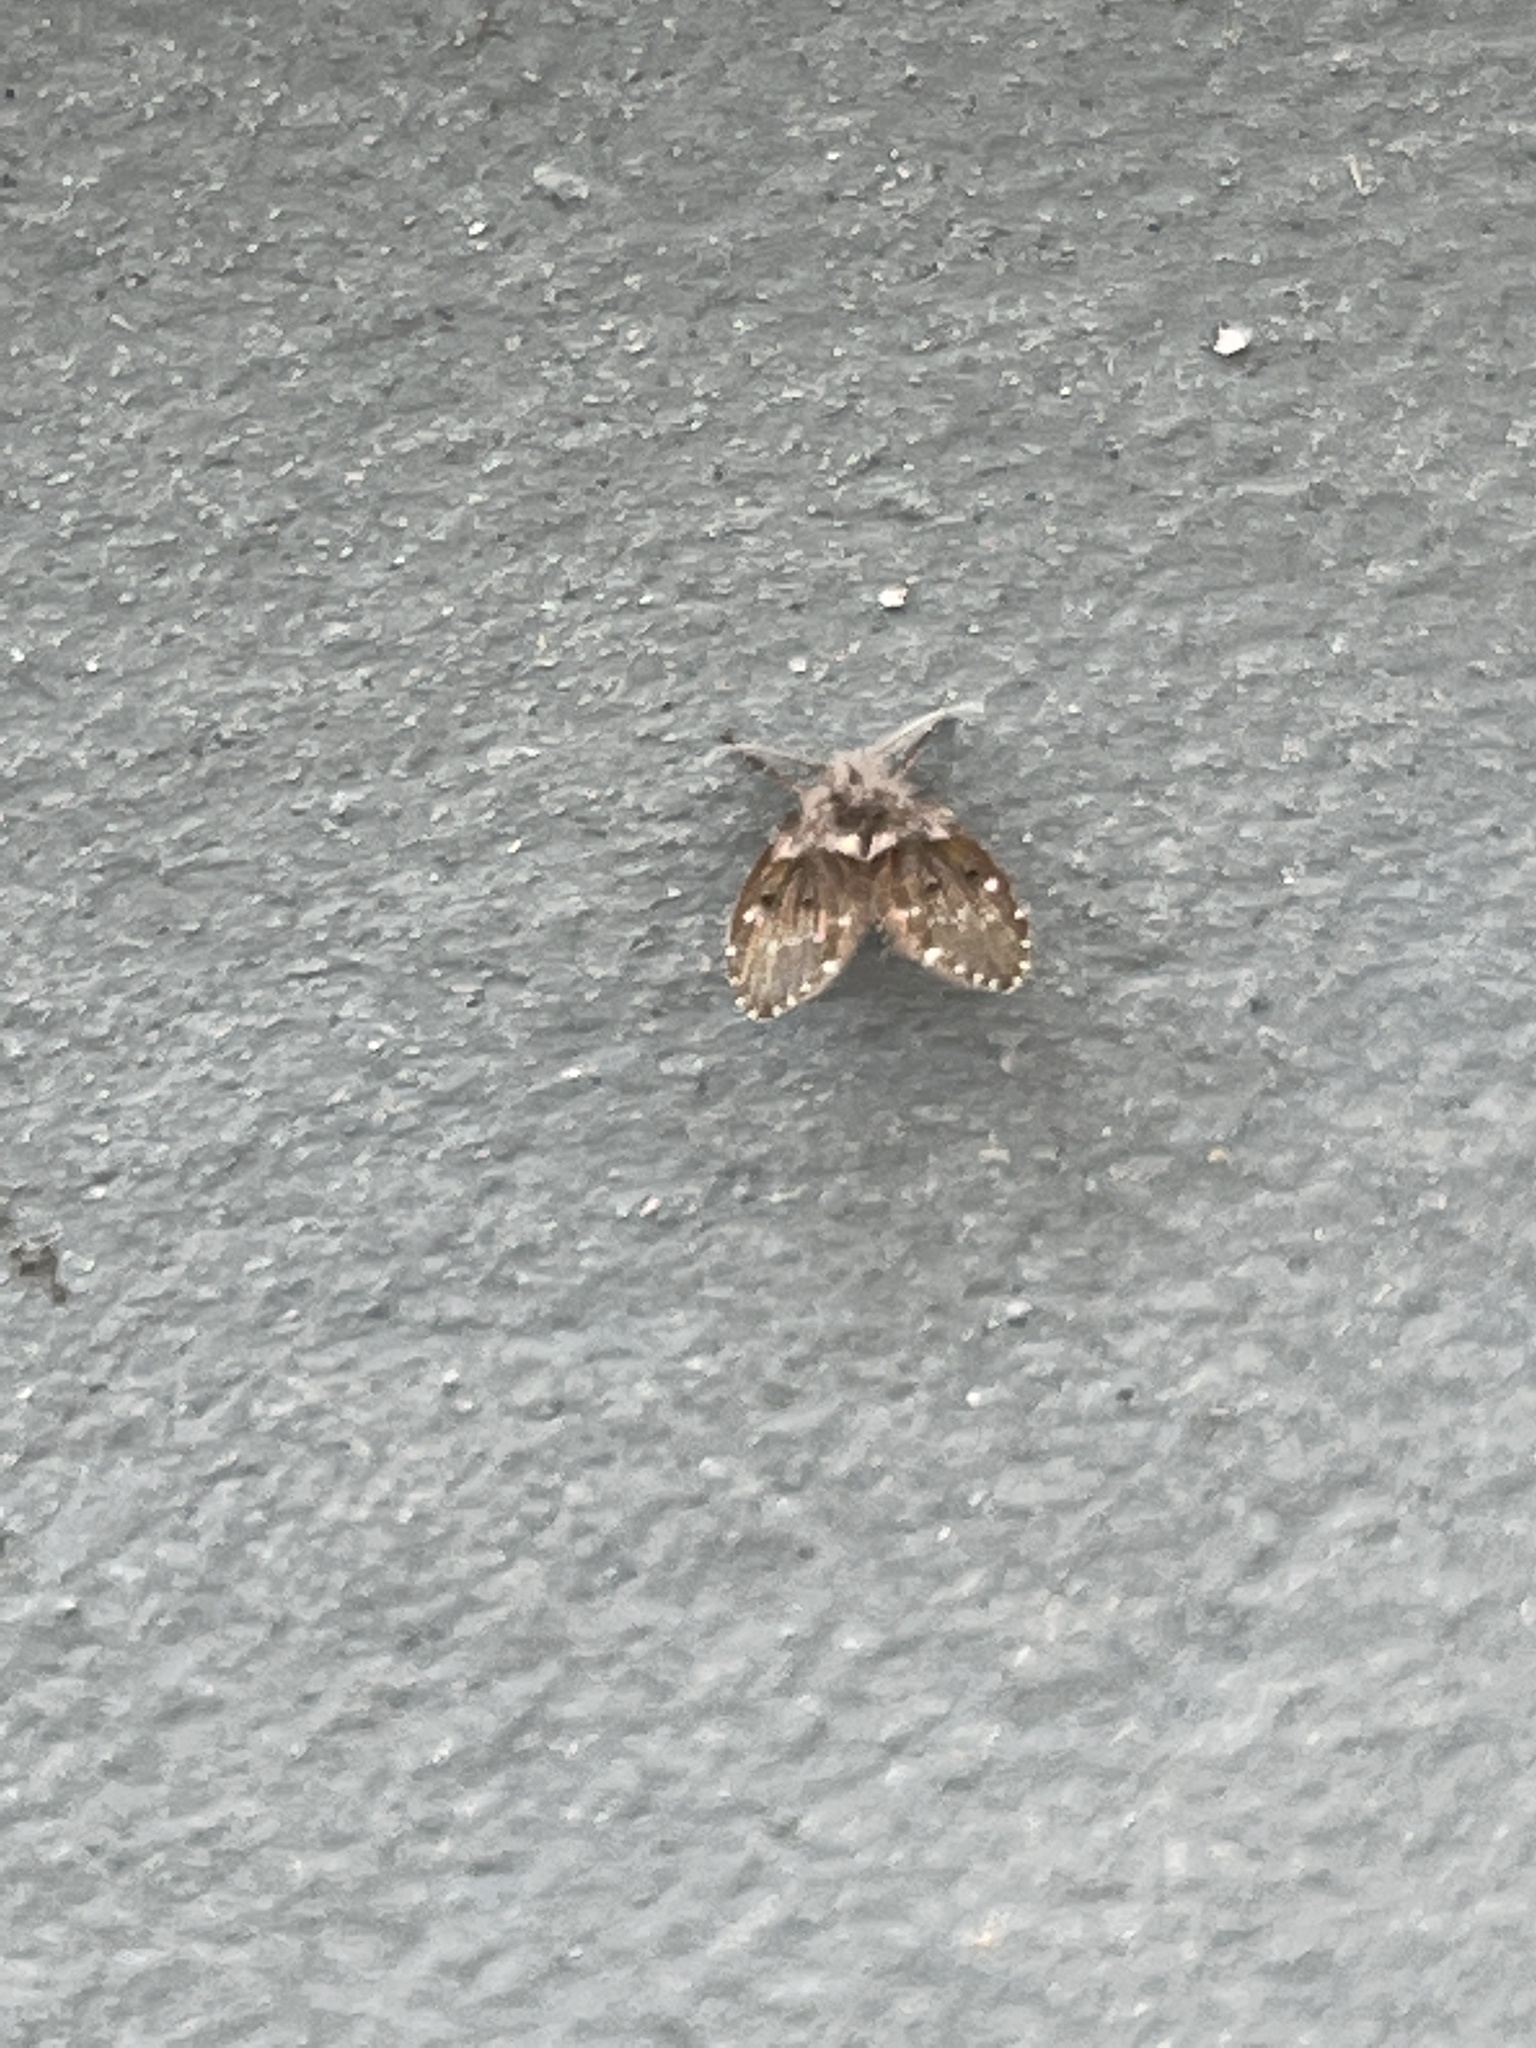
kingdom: Animalia
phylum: Arthropoda
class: Insecta
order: Diptera
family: Psychodidae
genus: Clogmia
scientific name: Clogmia albipunctatus
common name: White-spotted moth fly
